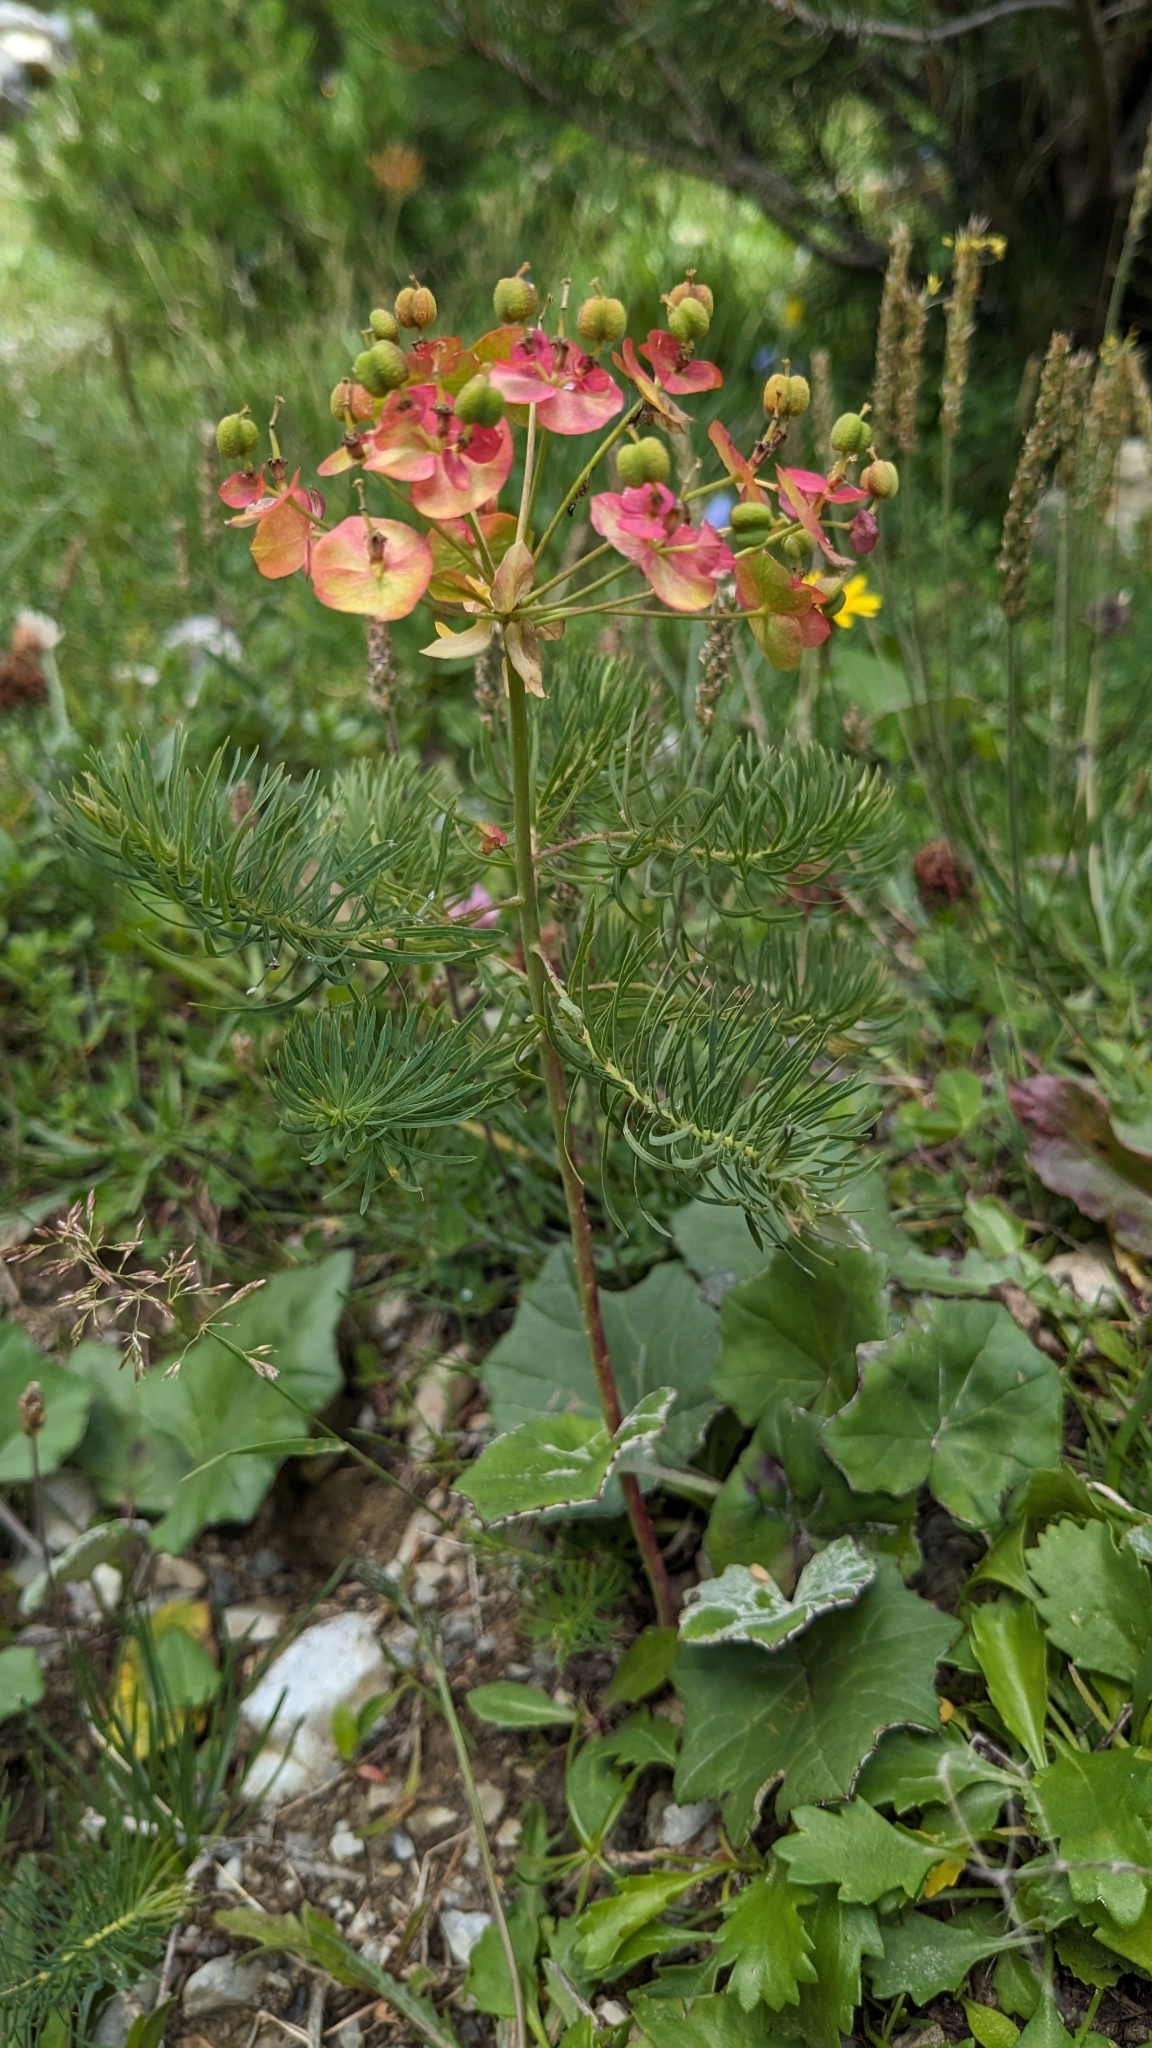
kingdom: Plantae
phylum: Tracheophyta
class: Magnoliopsida
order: Malpighiales
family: Euphorbiaceae
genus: Euphorbia
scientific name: Euphorbia cyparissias
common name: Cypress spurge
